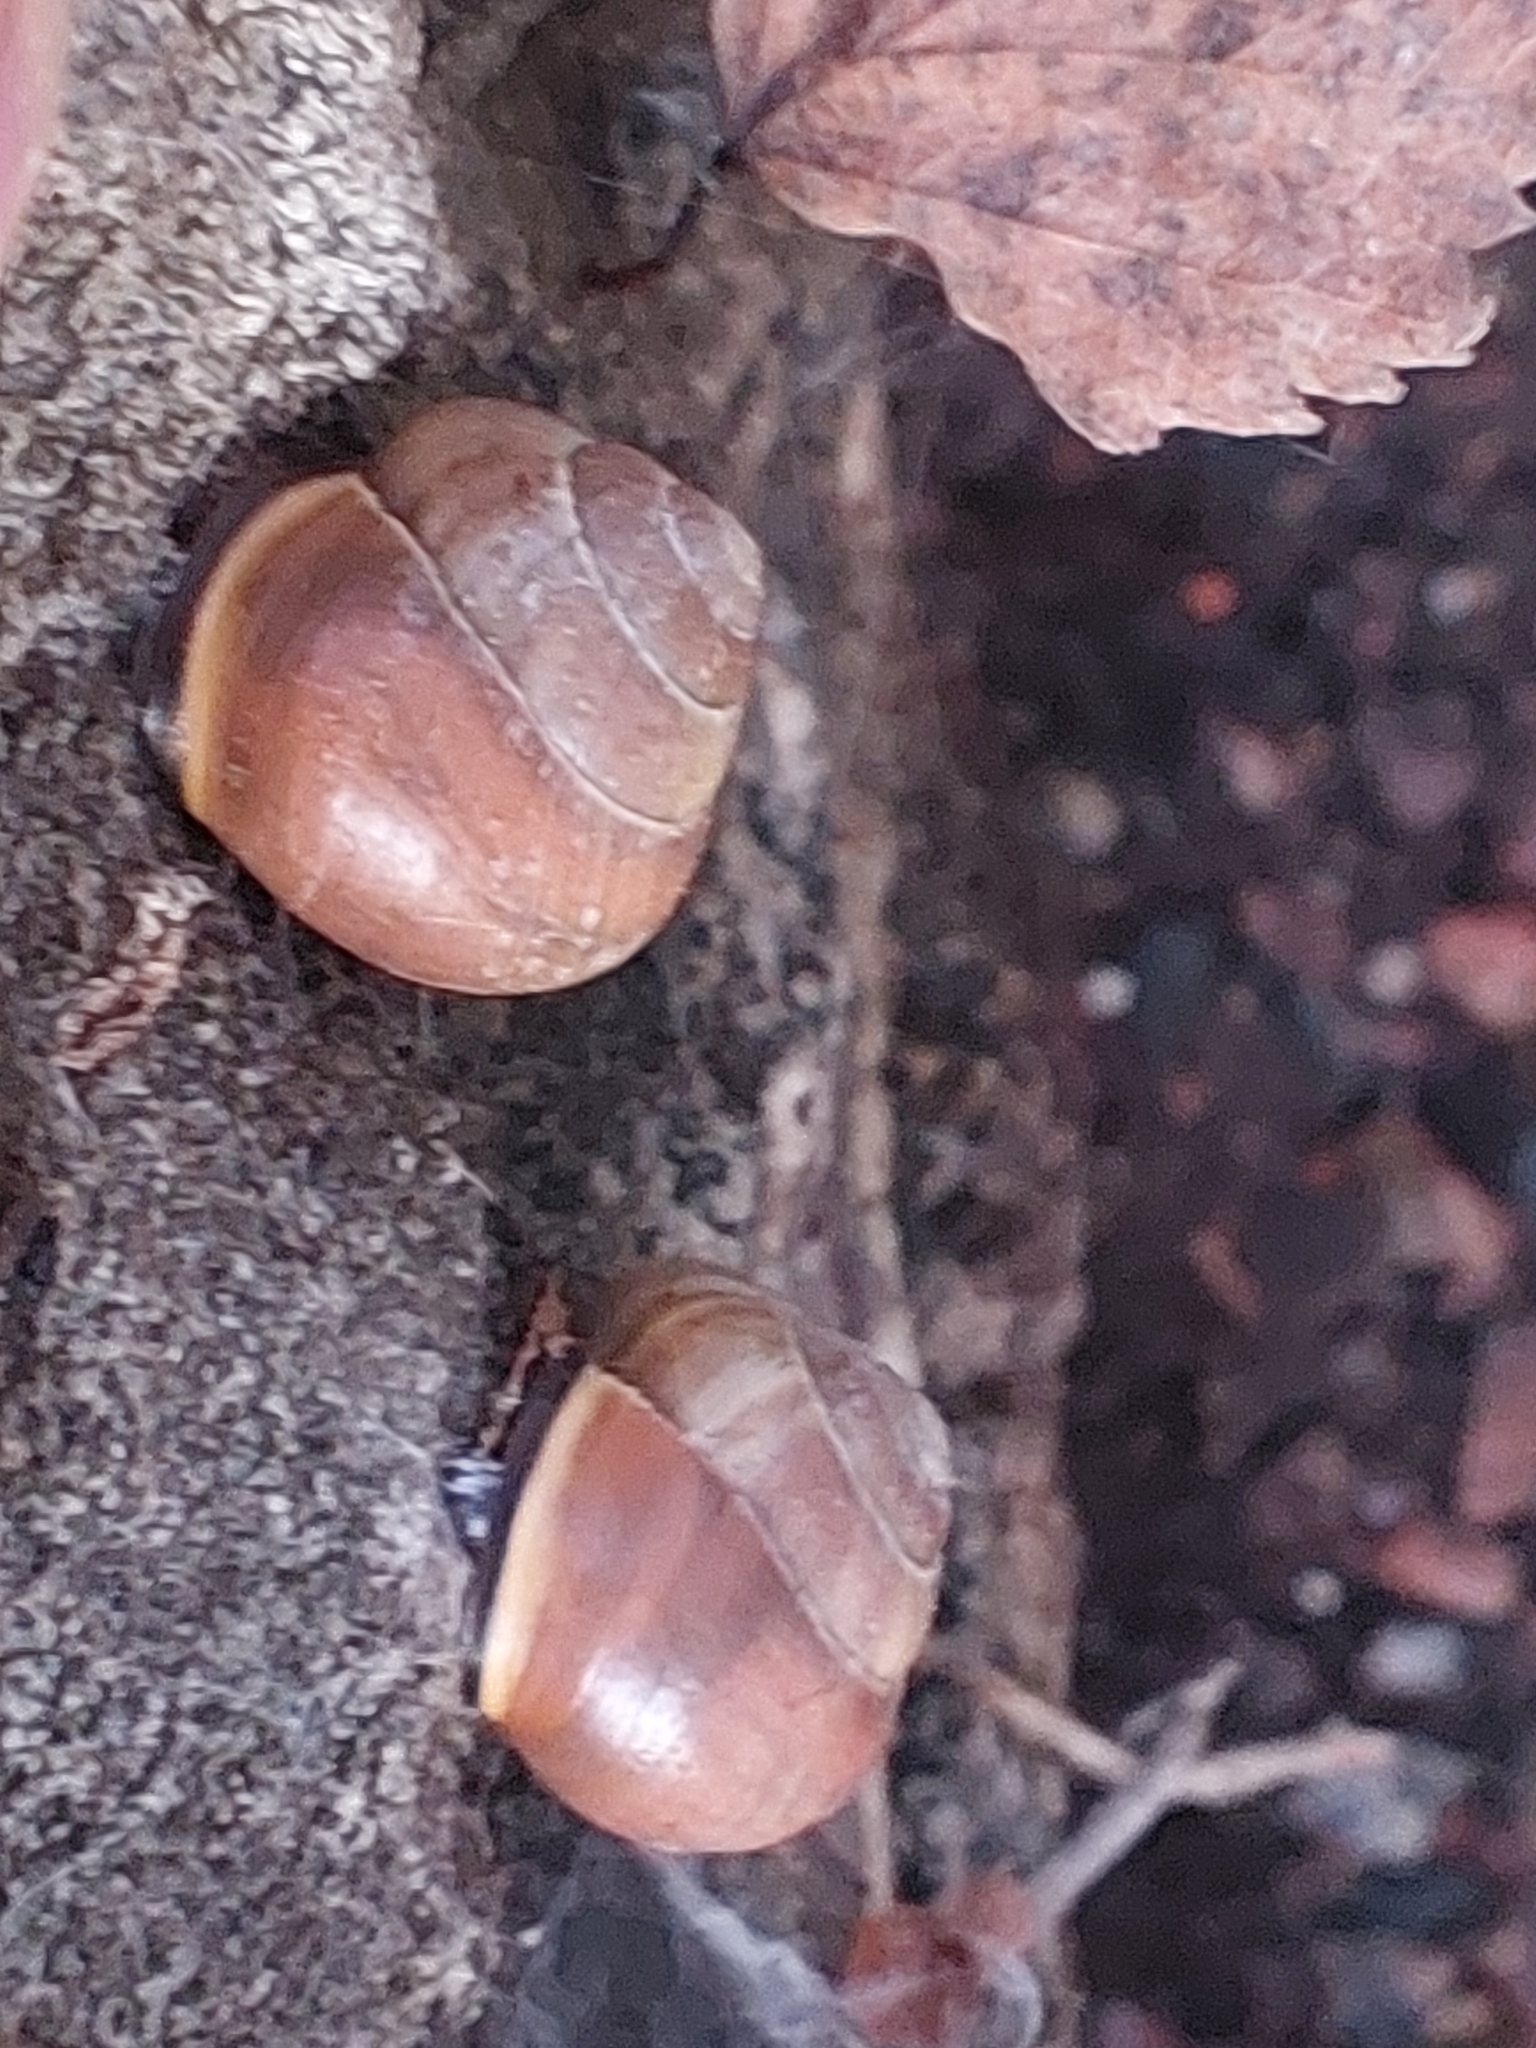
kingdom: Animalia
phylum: Mollusca
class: Gastropoda
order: Stylommatophora
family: Helicidae
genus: Cepaea
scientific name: Cepaea nemoralis
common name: Grovesnail
